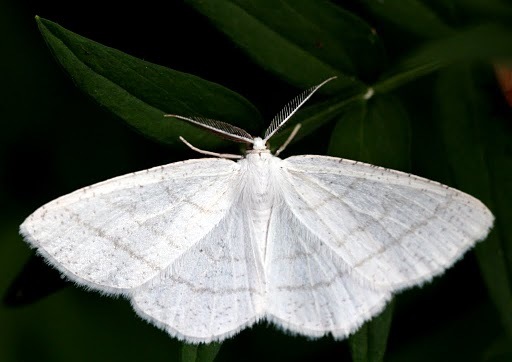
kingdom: Animalia
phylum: Arthropoda
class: Insecta
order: Lepidoptera
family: Geometridae
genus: Cabera
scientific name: Cabera pusaria
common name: Common white wave
